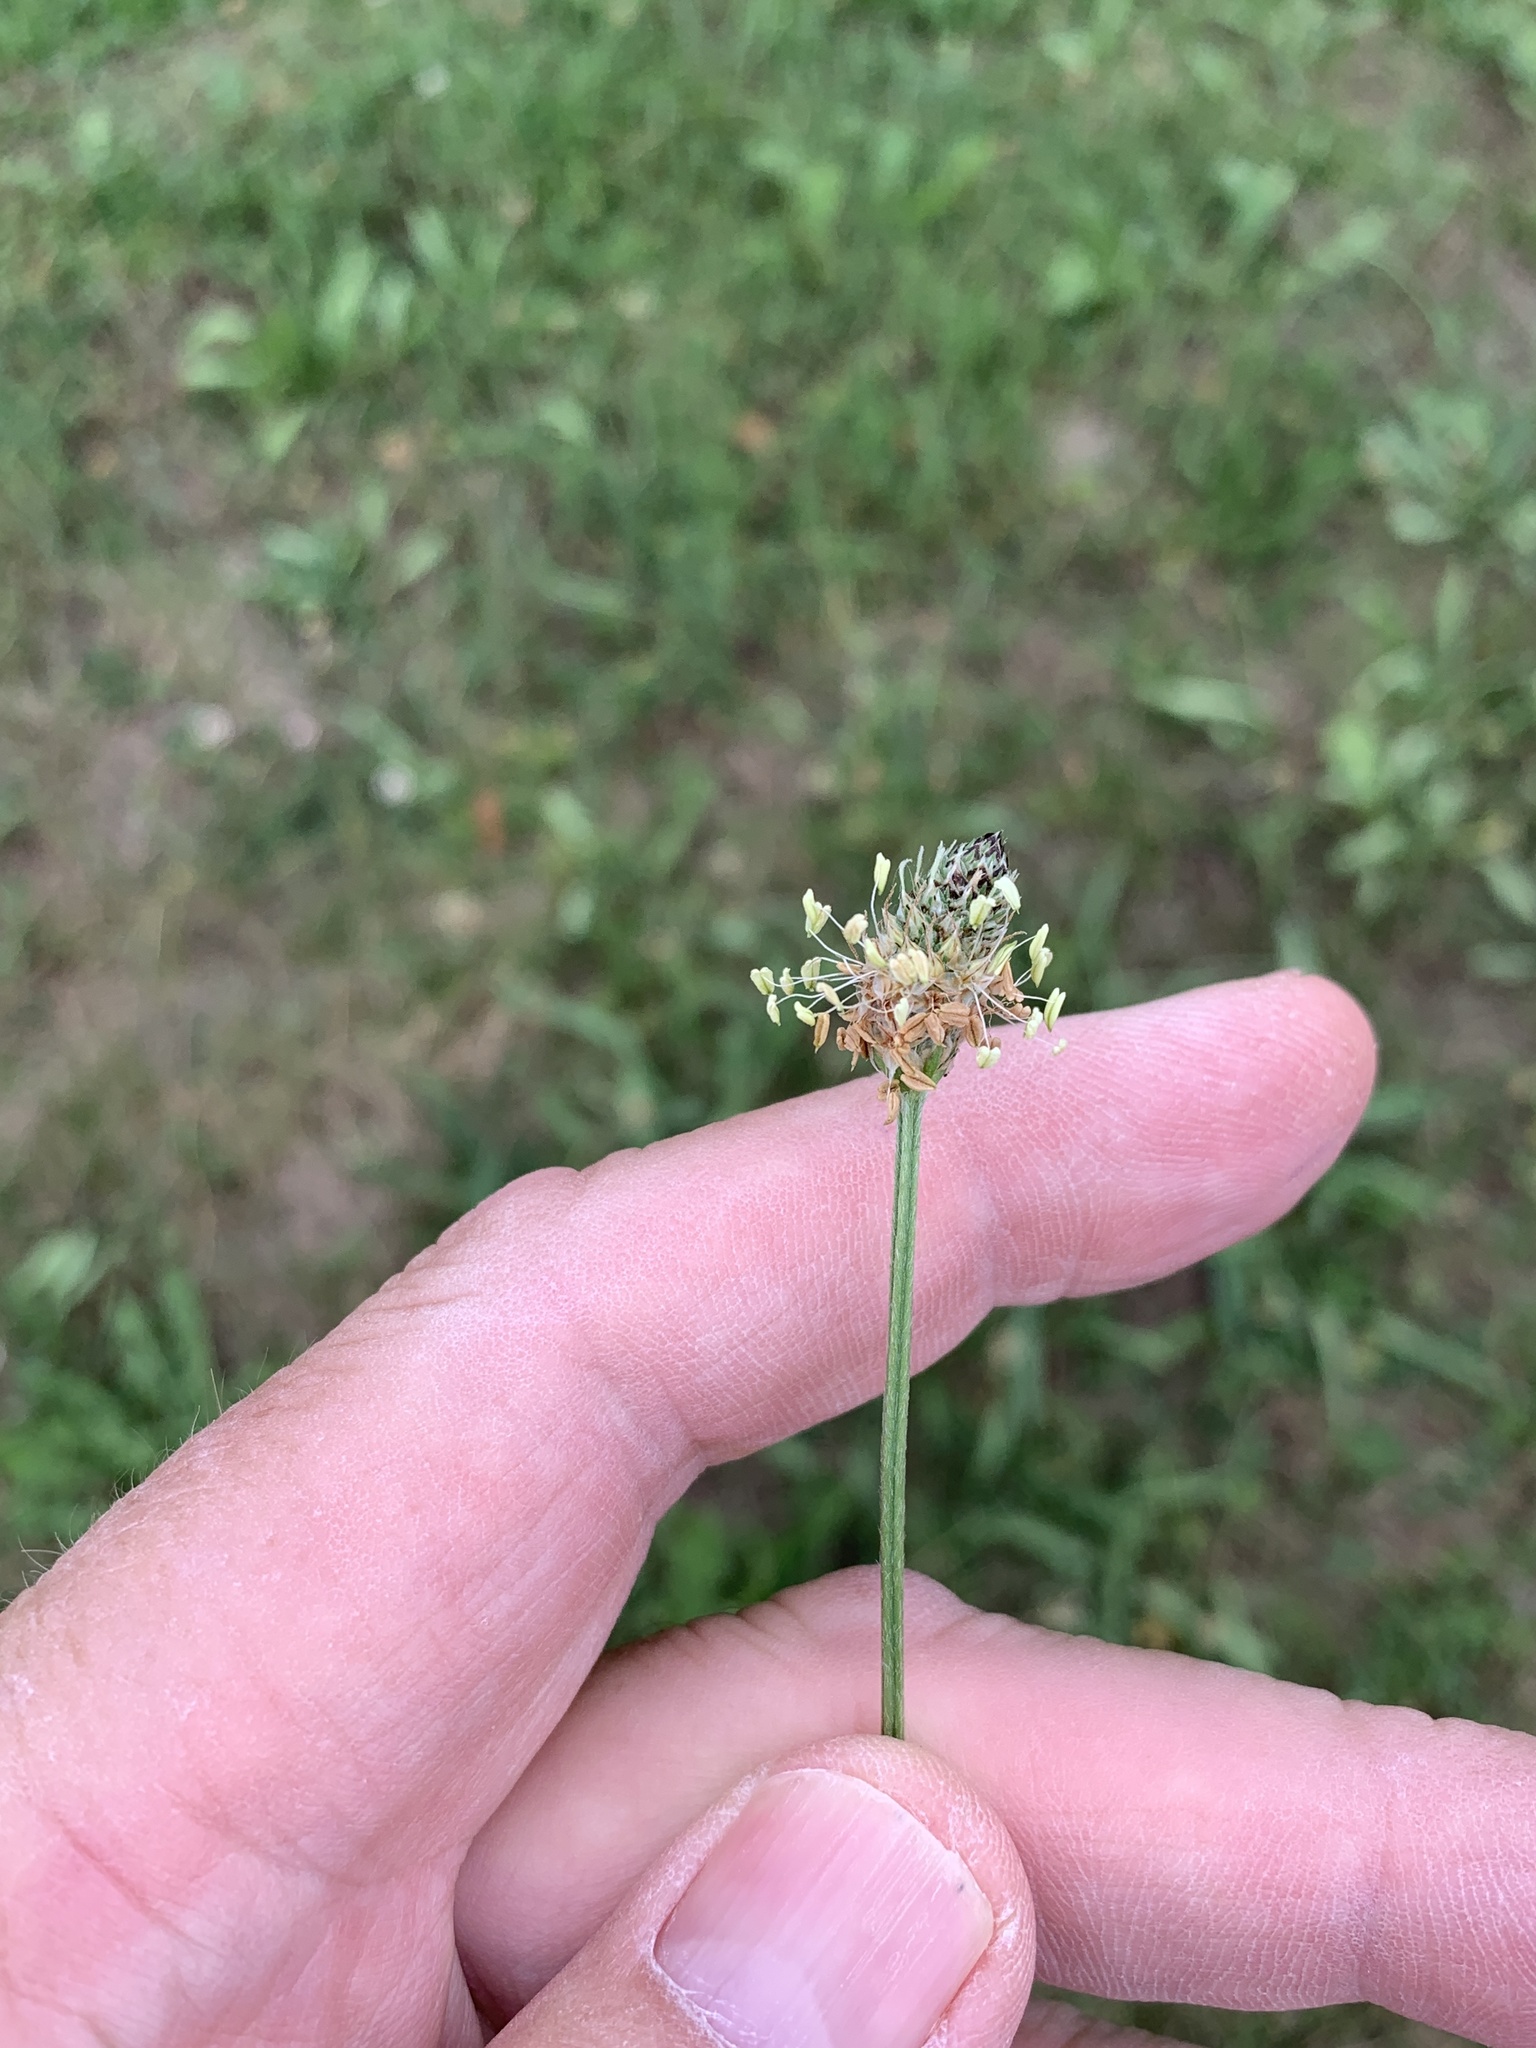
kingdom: Plantae
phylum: Tracheophyta
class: Magnoliopsida
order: Lamiales
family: Plantaginaceae
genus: Plantago
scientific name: Plantago lanceolata
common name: Ribwort plantain
